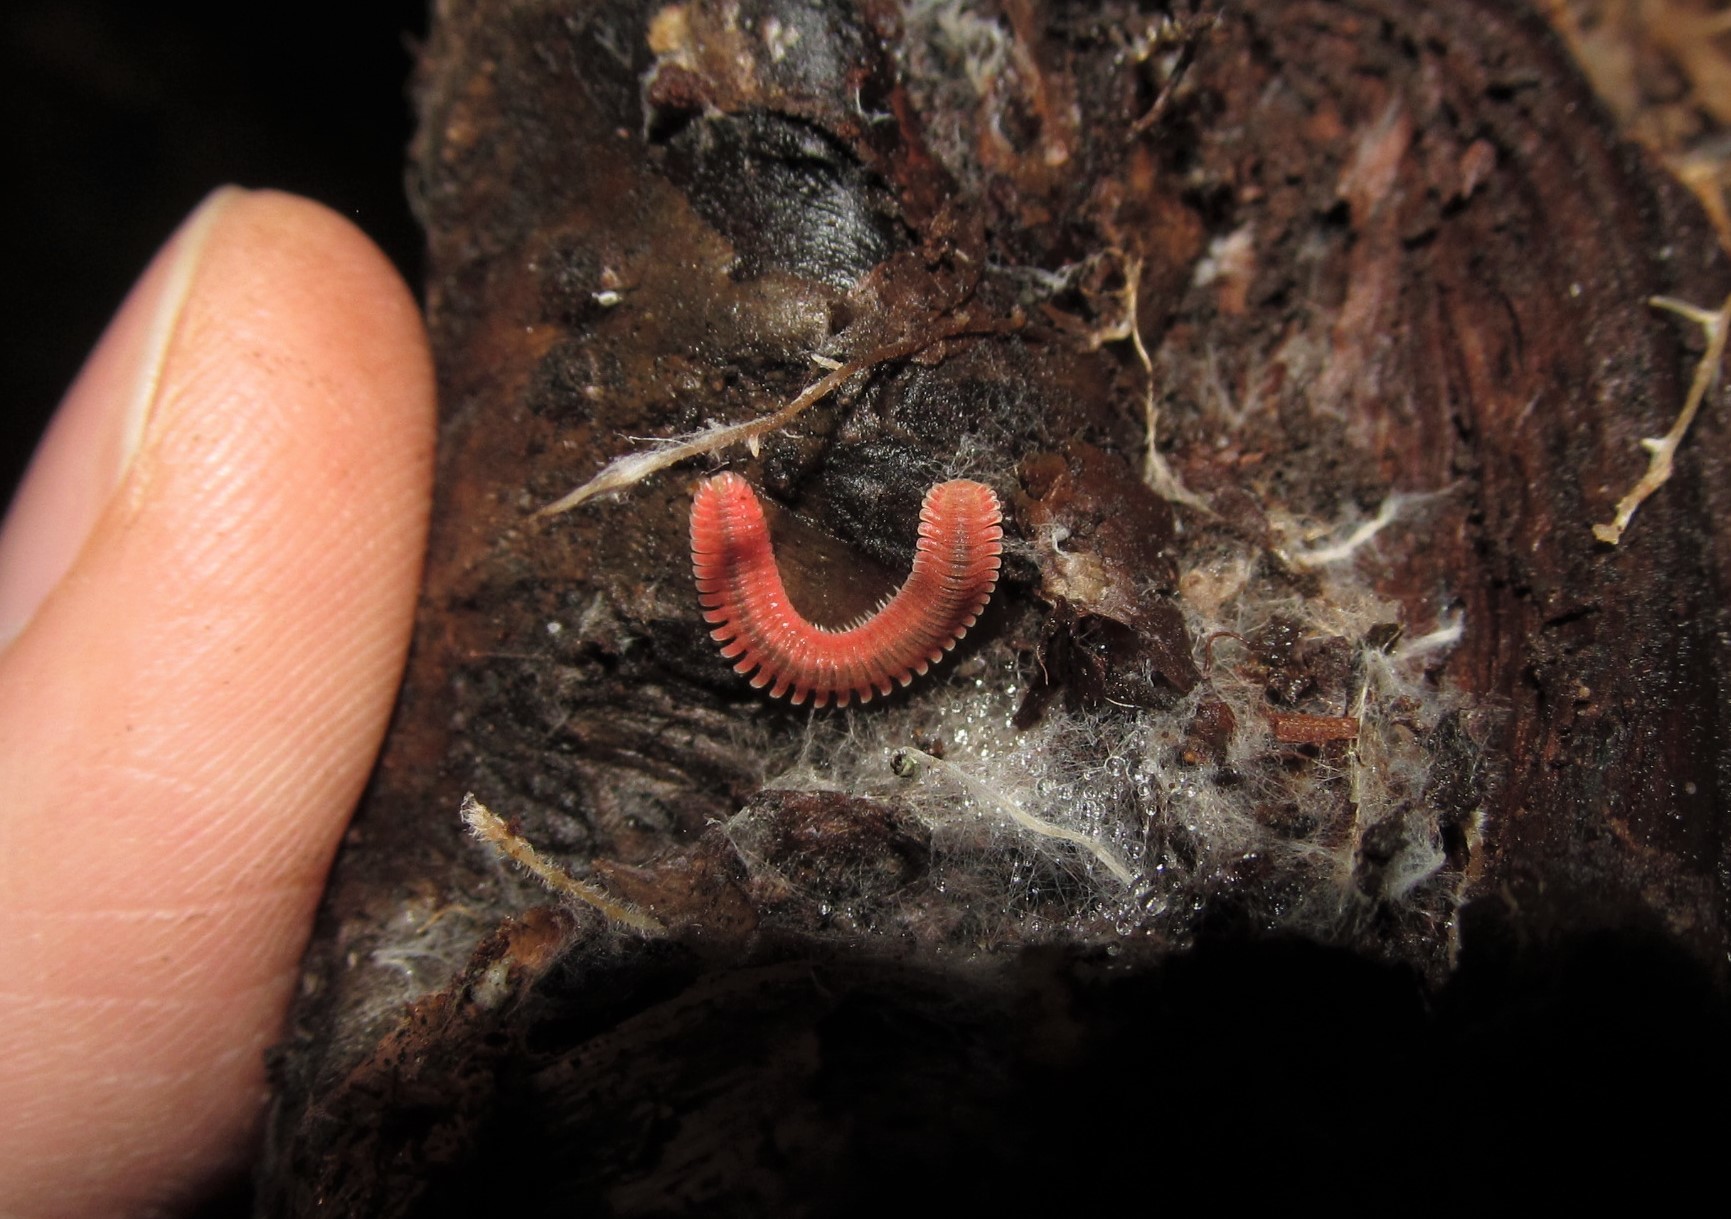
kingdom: Animalia
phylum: Arthropoda
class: Diplopoda
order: Platydesmida
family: Andrognathidae
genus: Brachycybe
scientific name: Brachycybe petasata
